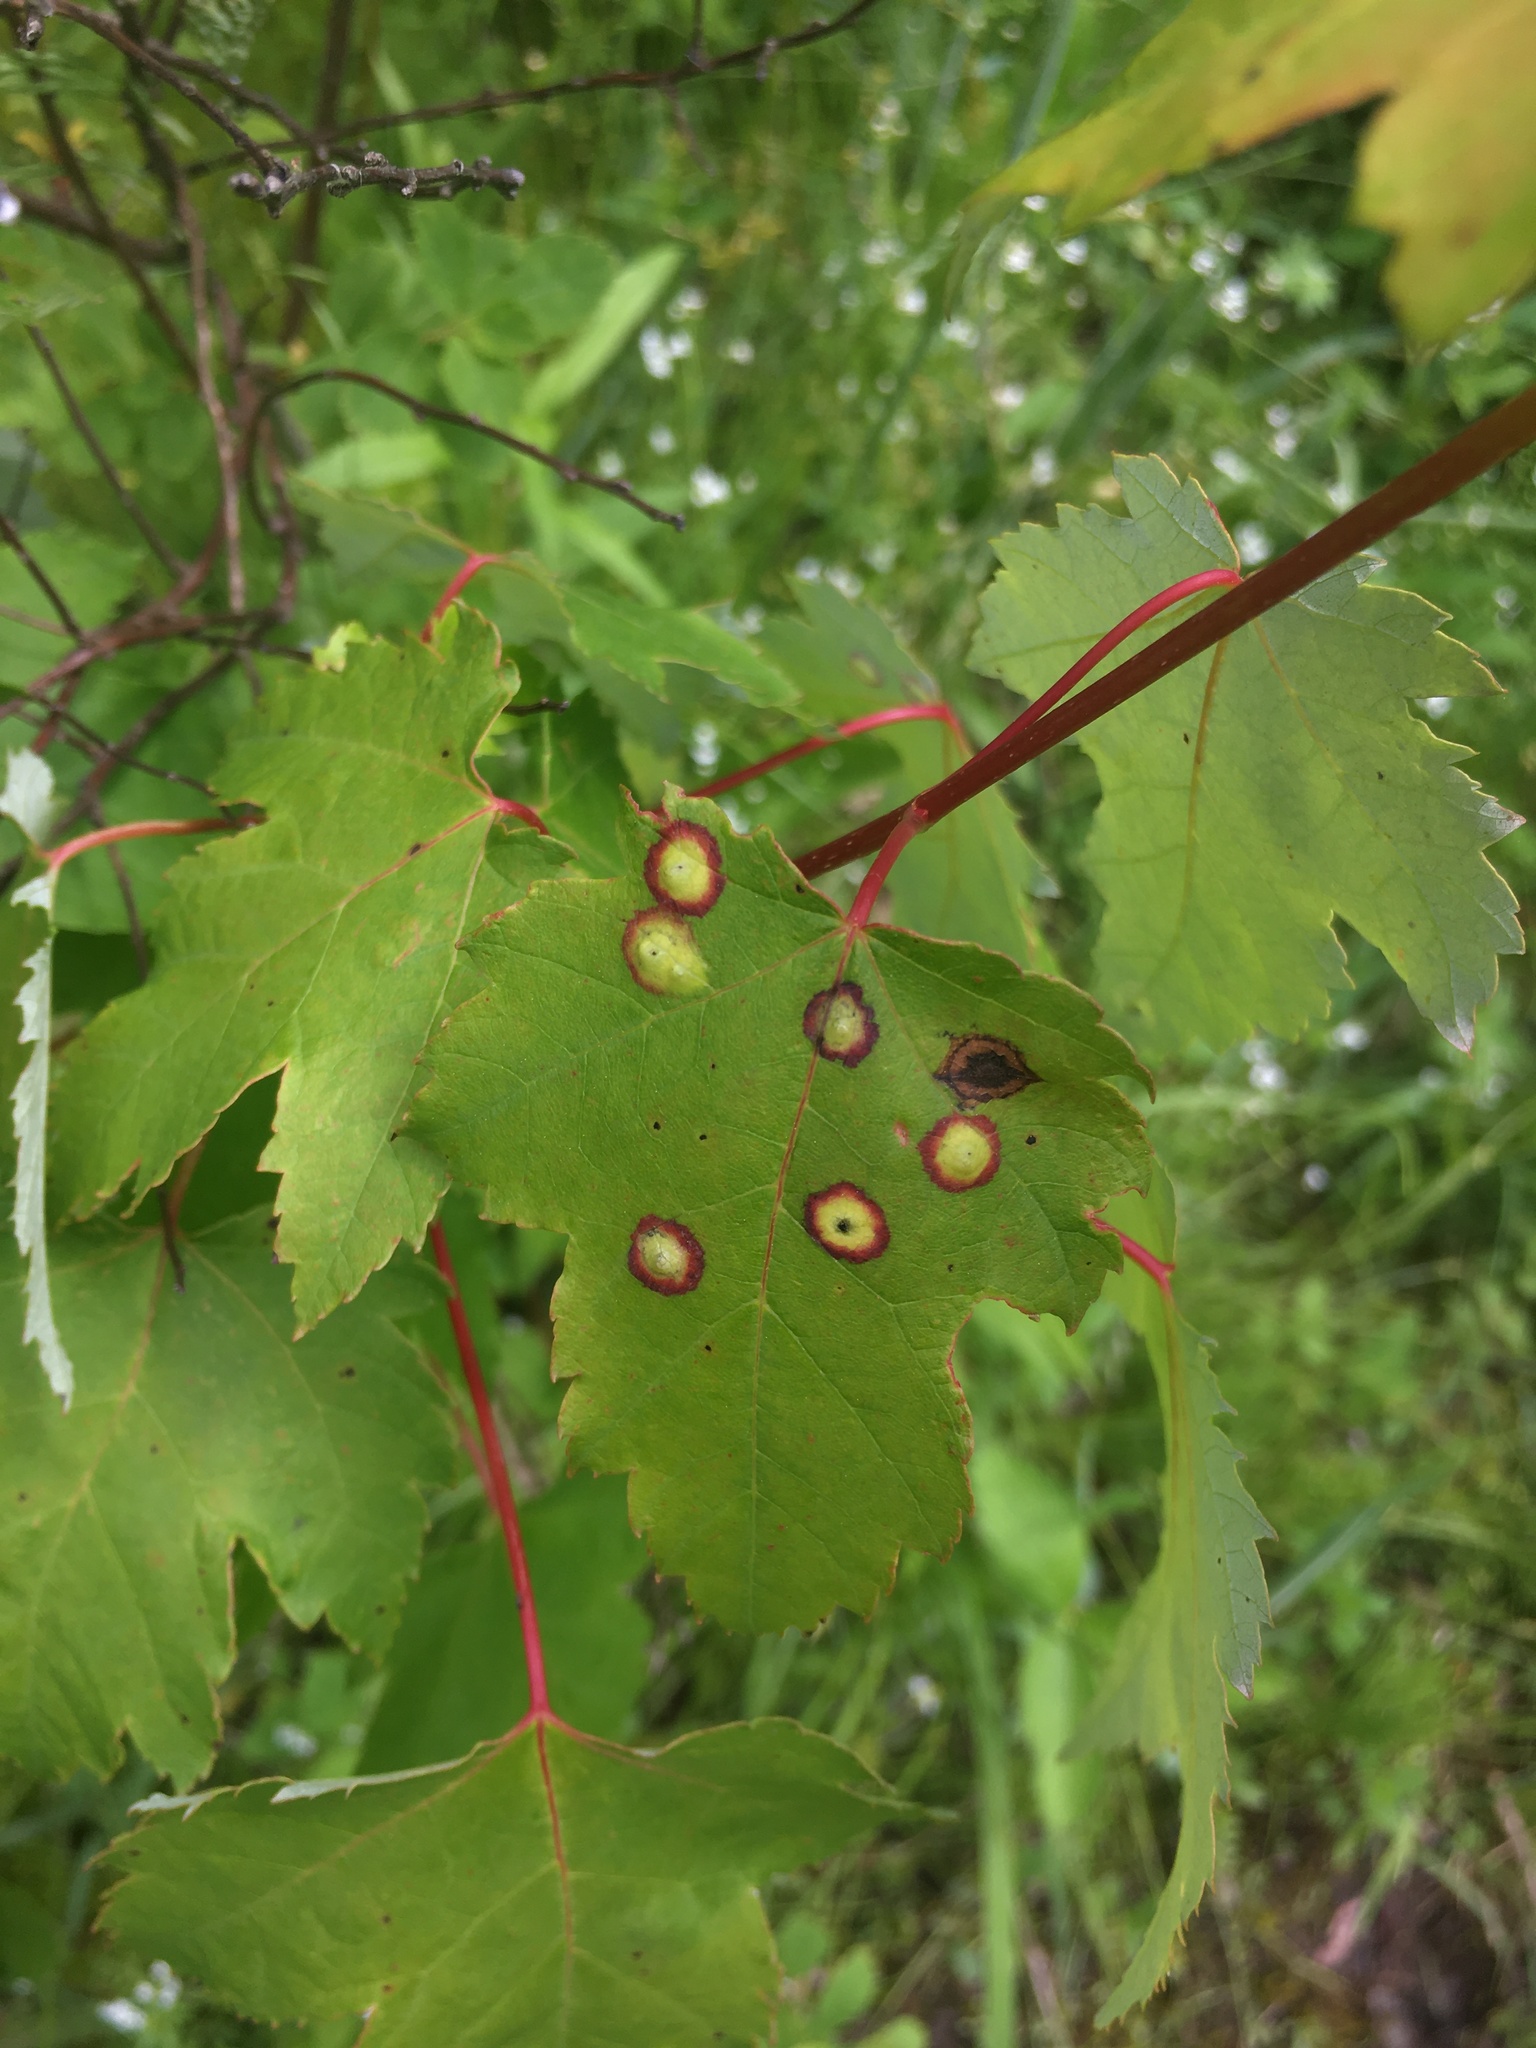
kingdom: Animalia
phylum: Arthropoda
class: Insecta
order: Diptera
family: Cecidomyiidae
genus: Acericecis
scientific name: Acericecis ocellaris
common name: Ocellate gall midge
